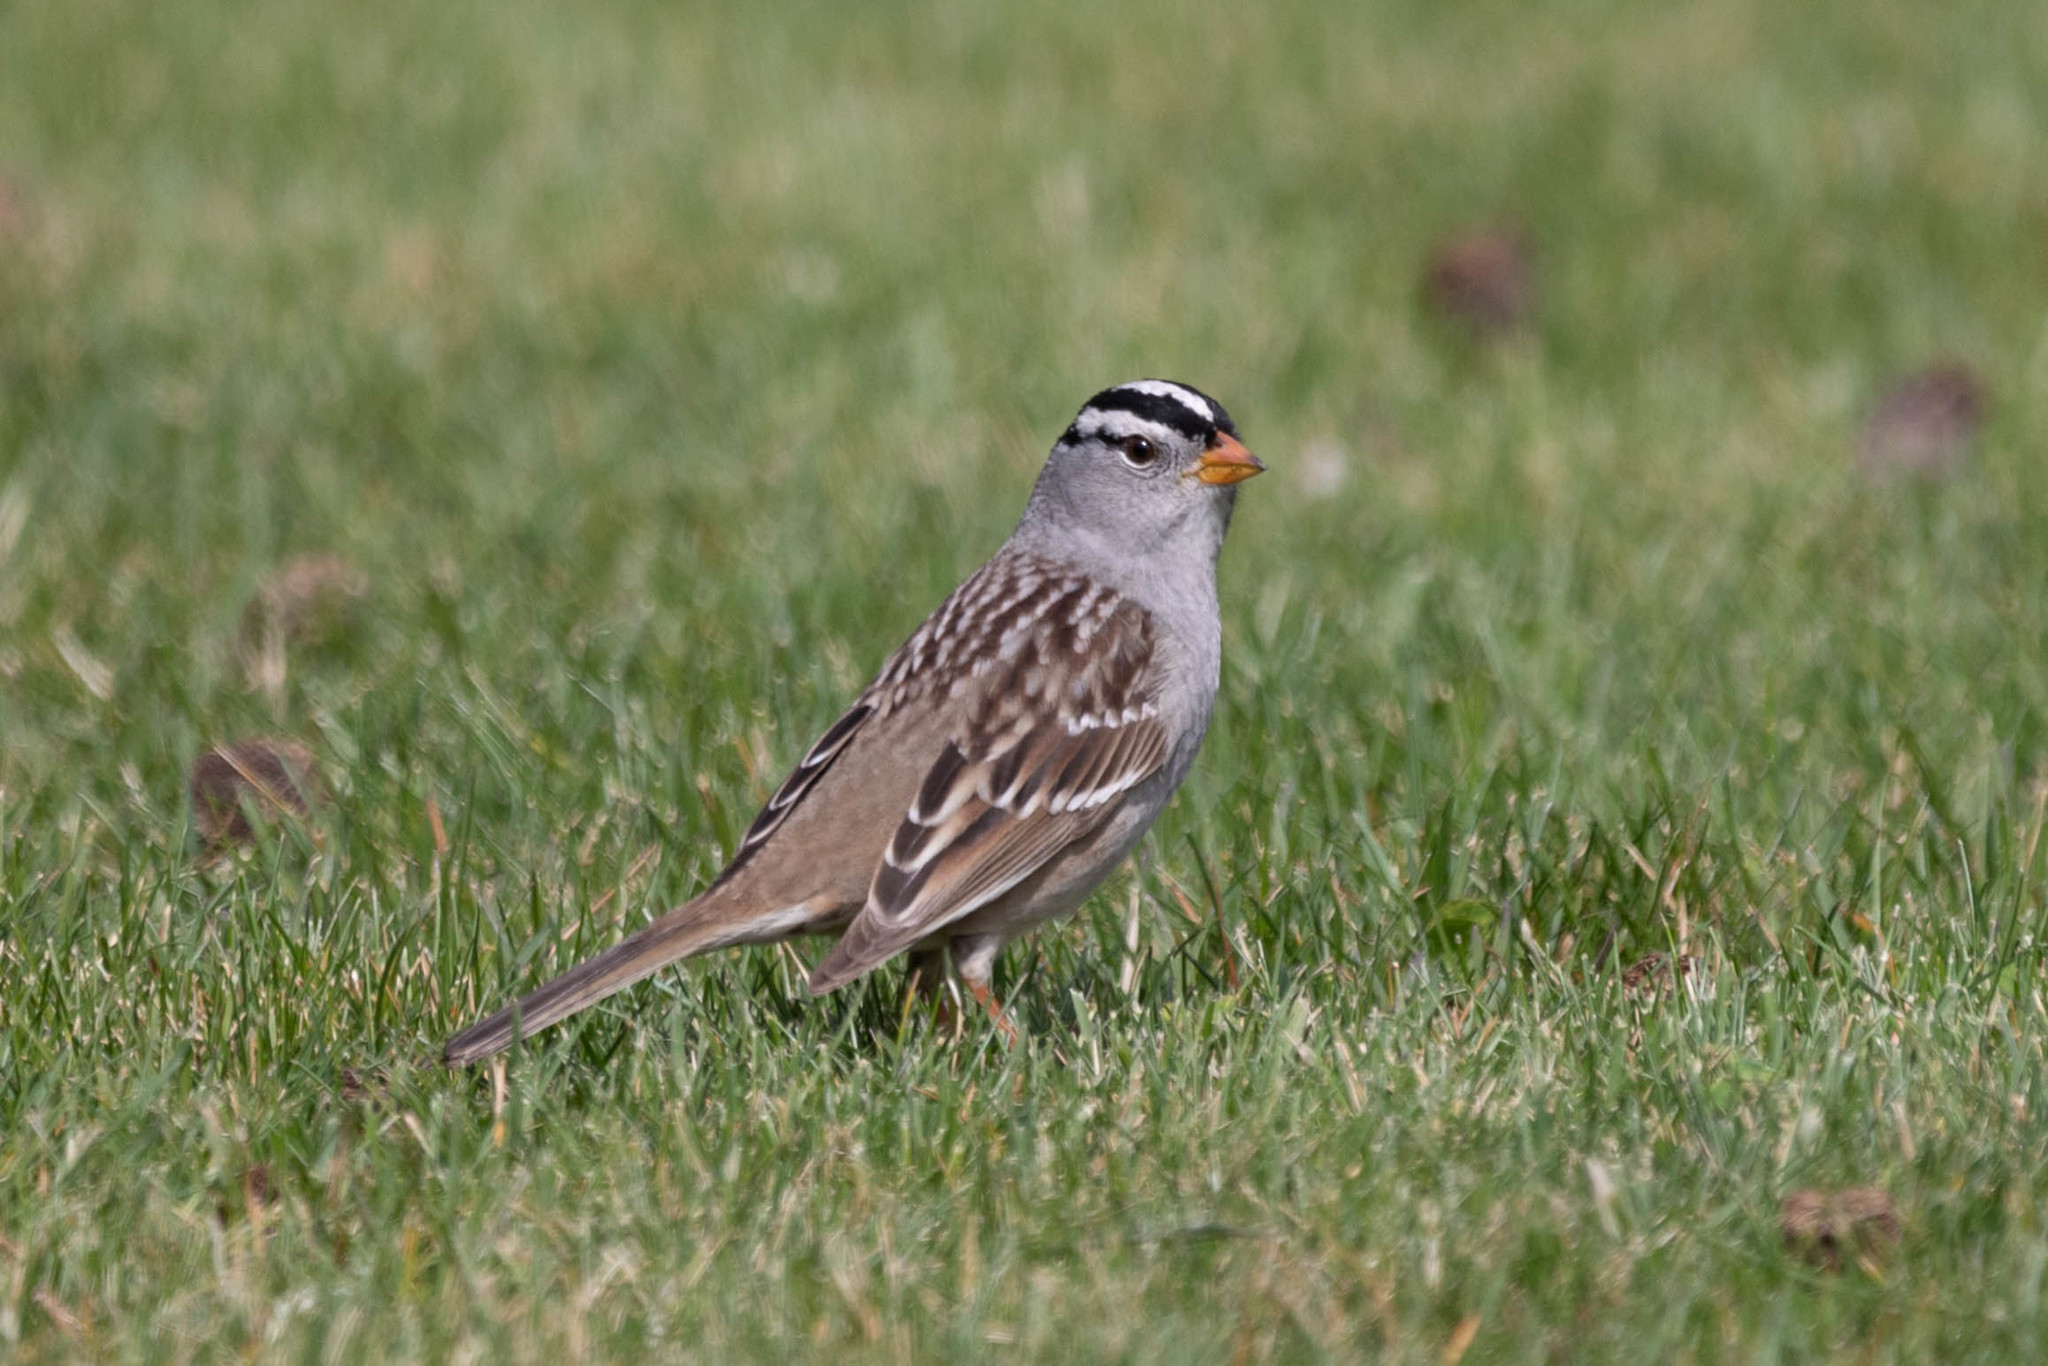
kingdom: Animalia
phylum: Chordata
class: Aves
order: Passeriformes
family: Passerellidae
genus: Zonotrichia
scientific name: Zonotrichia leucophrys
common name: White-crowned sparrow
